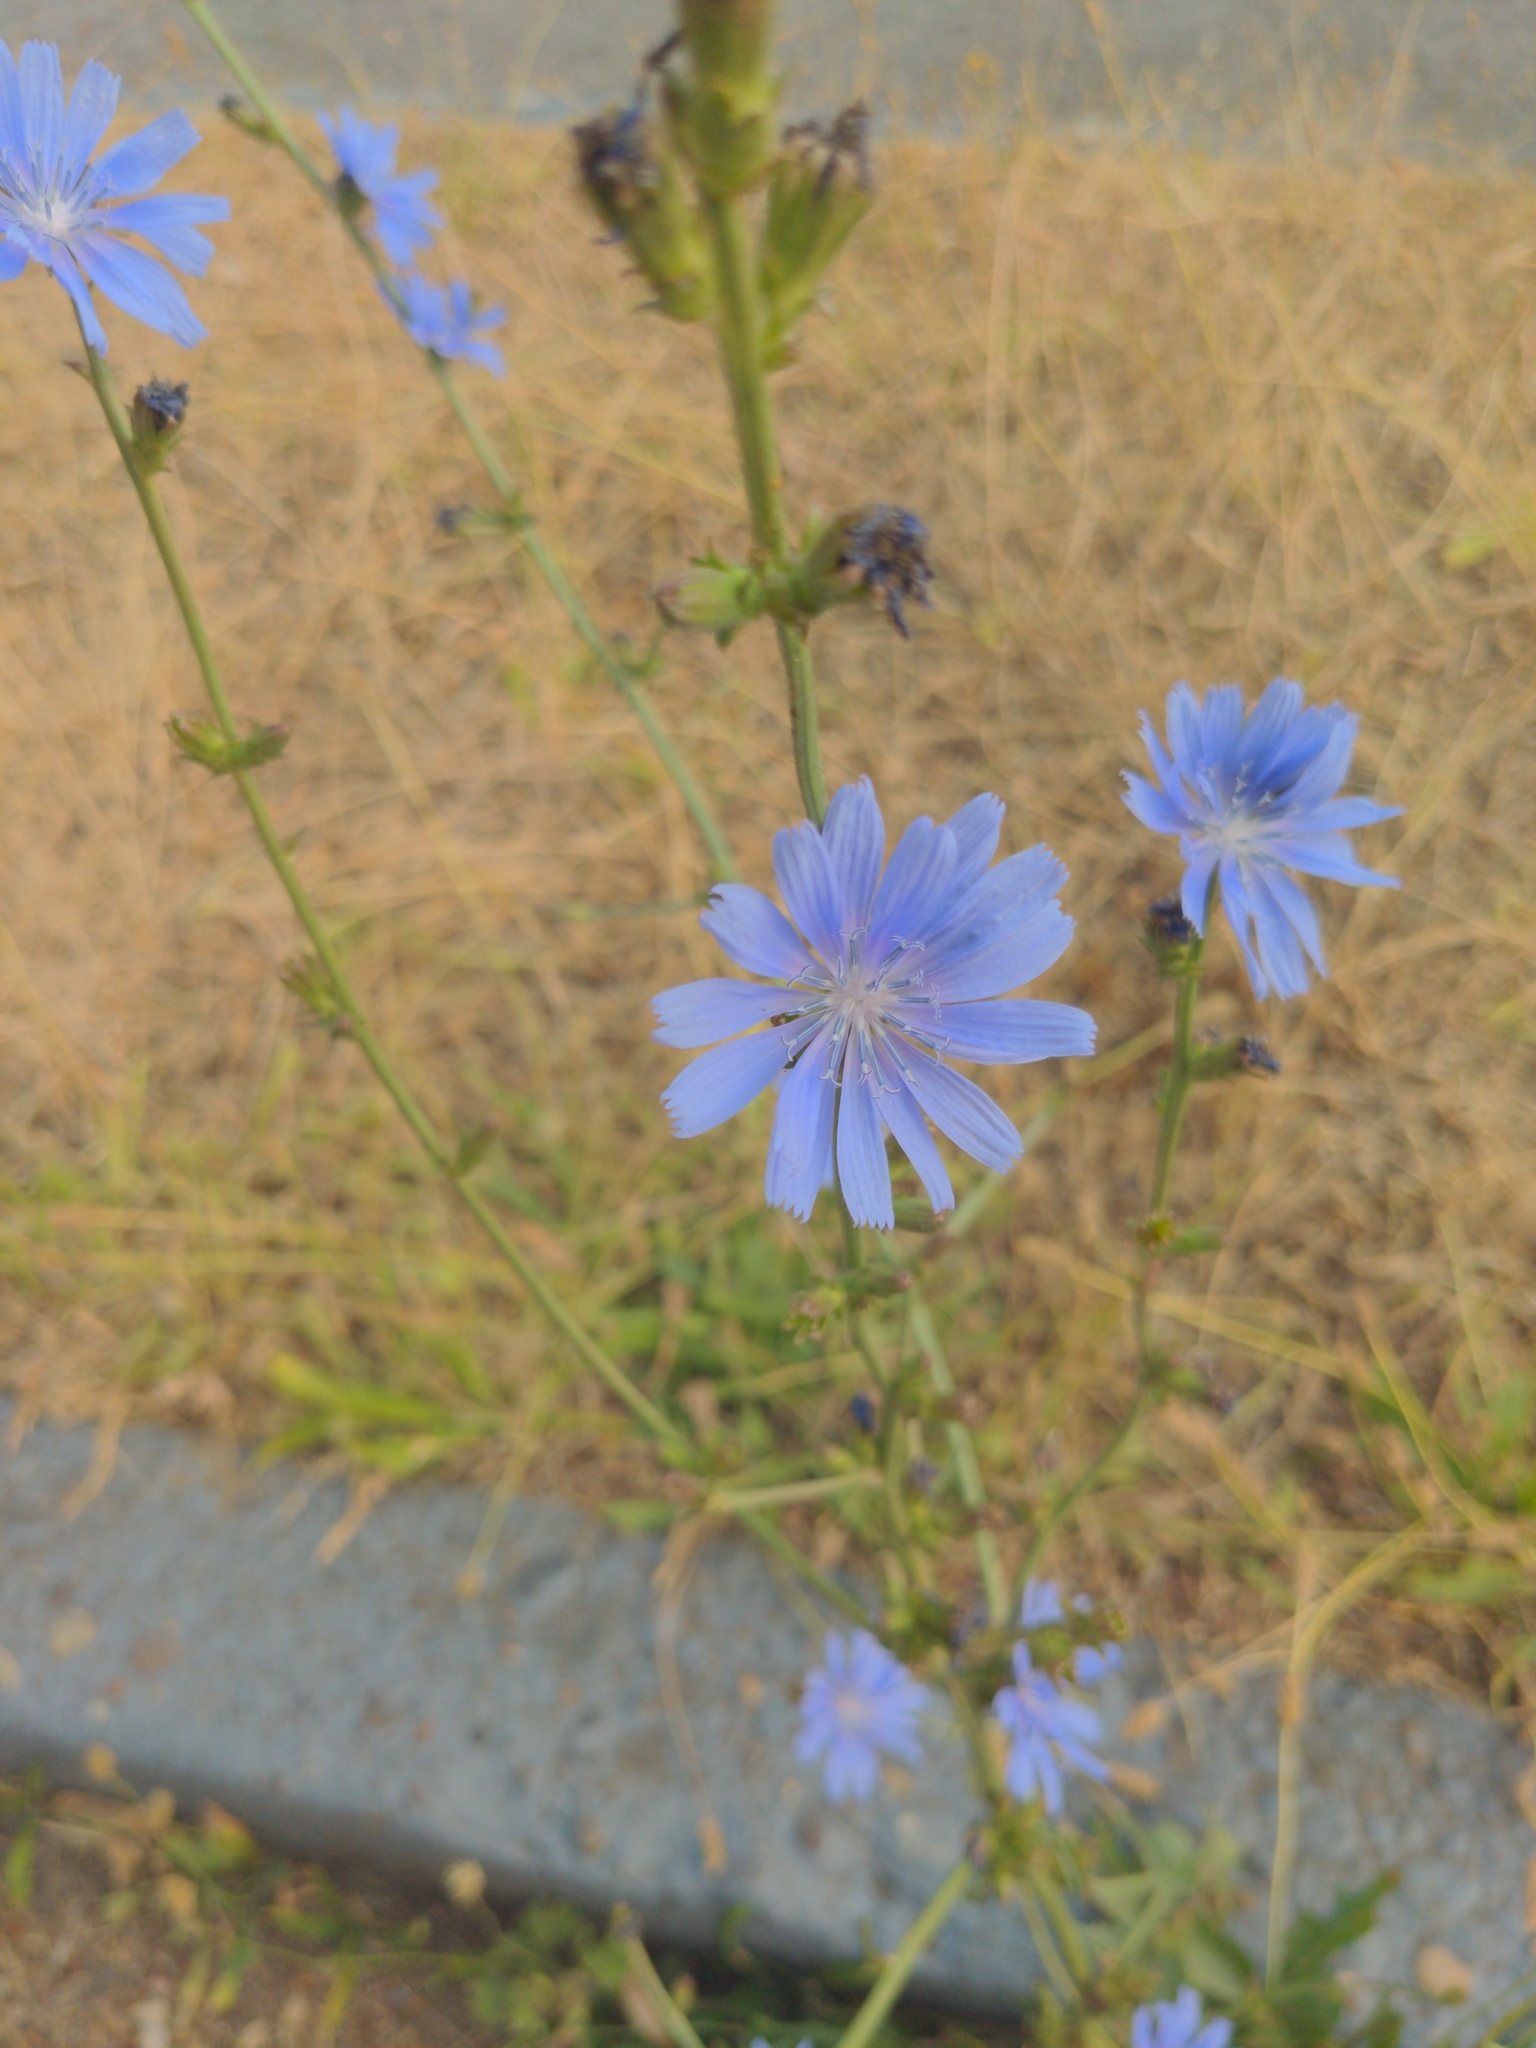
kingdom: Plantae
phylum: Tracheophyta
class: Magnoliopsida
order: Asterales
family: Asteraceae
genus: Cichorium
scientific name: Cichorium intybus
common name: Chicory
